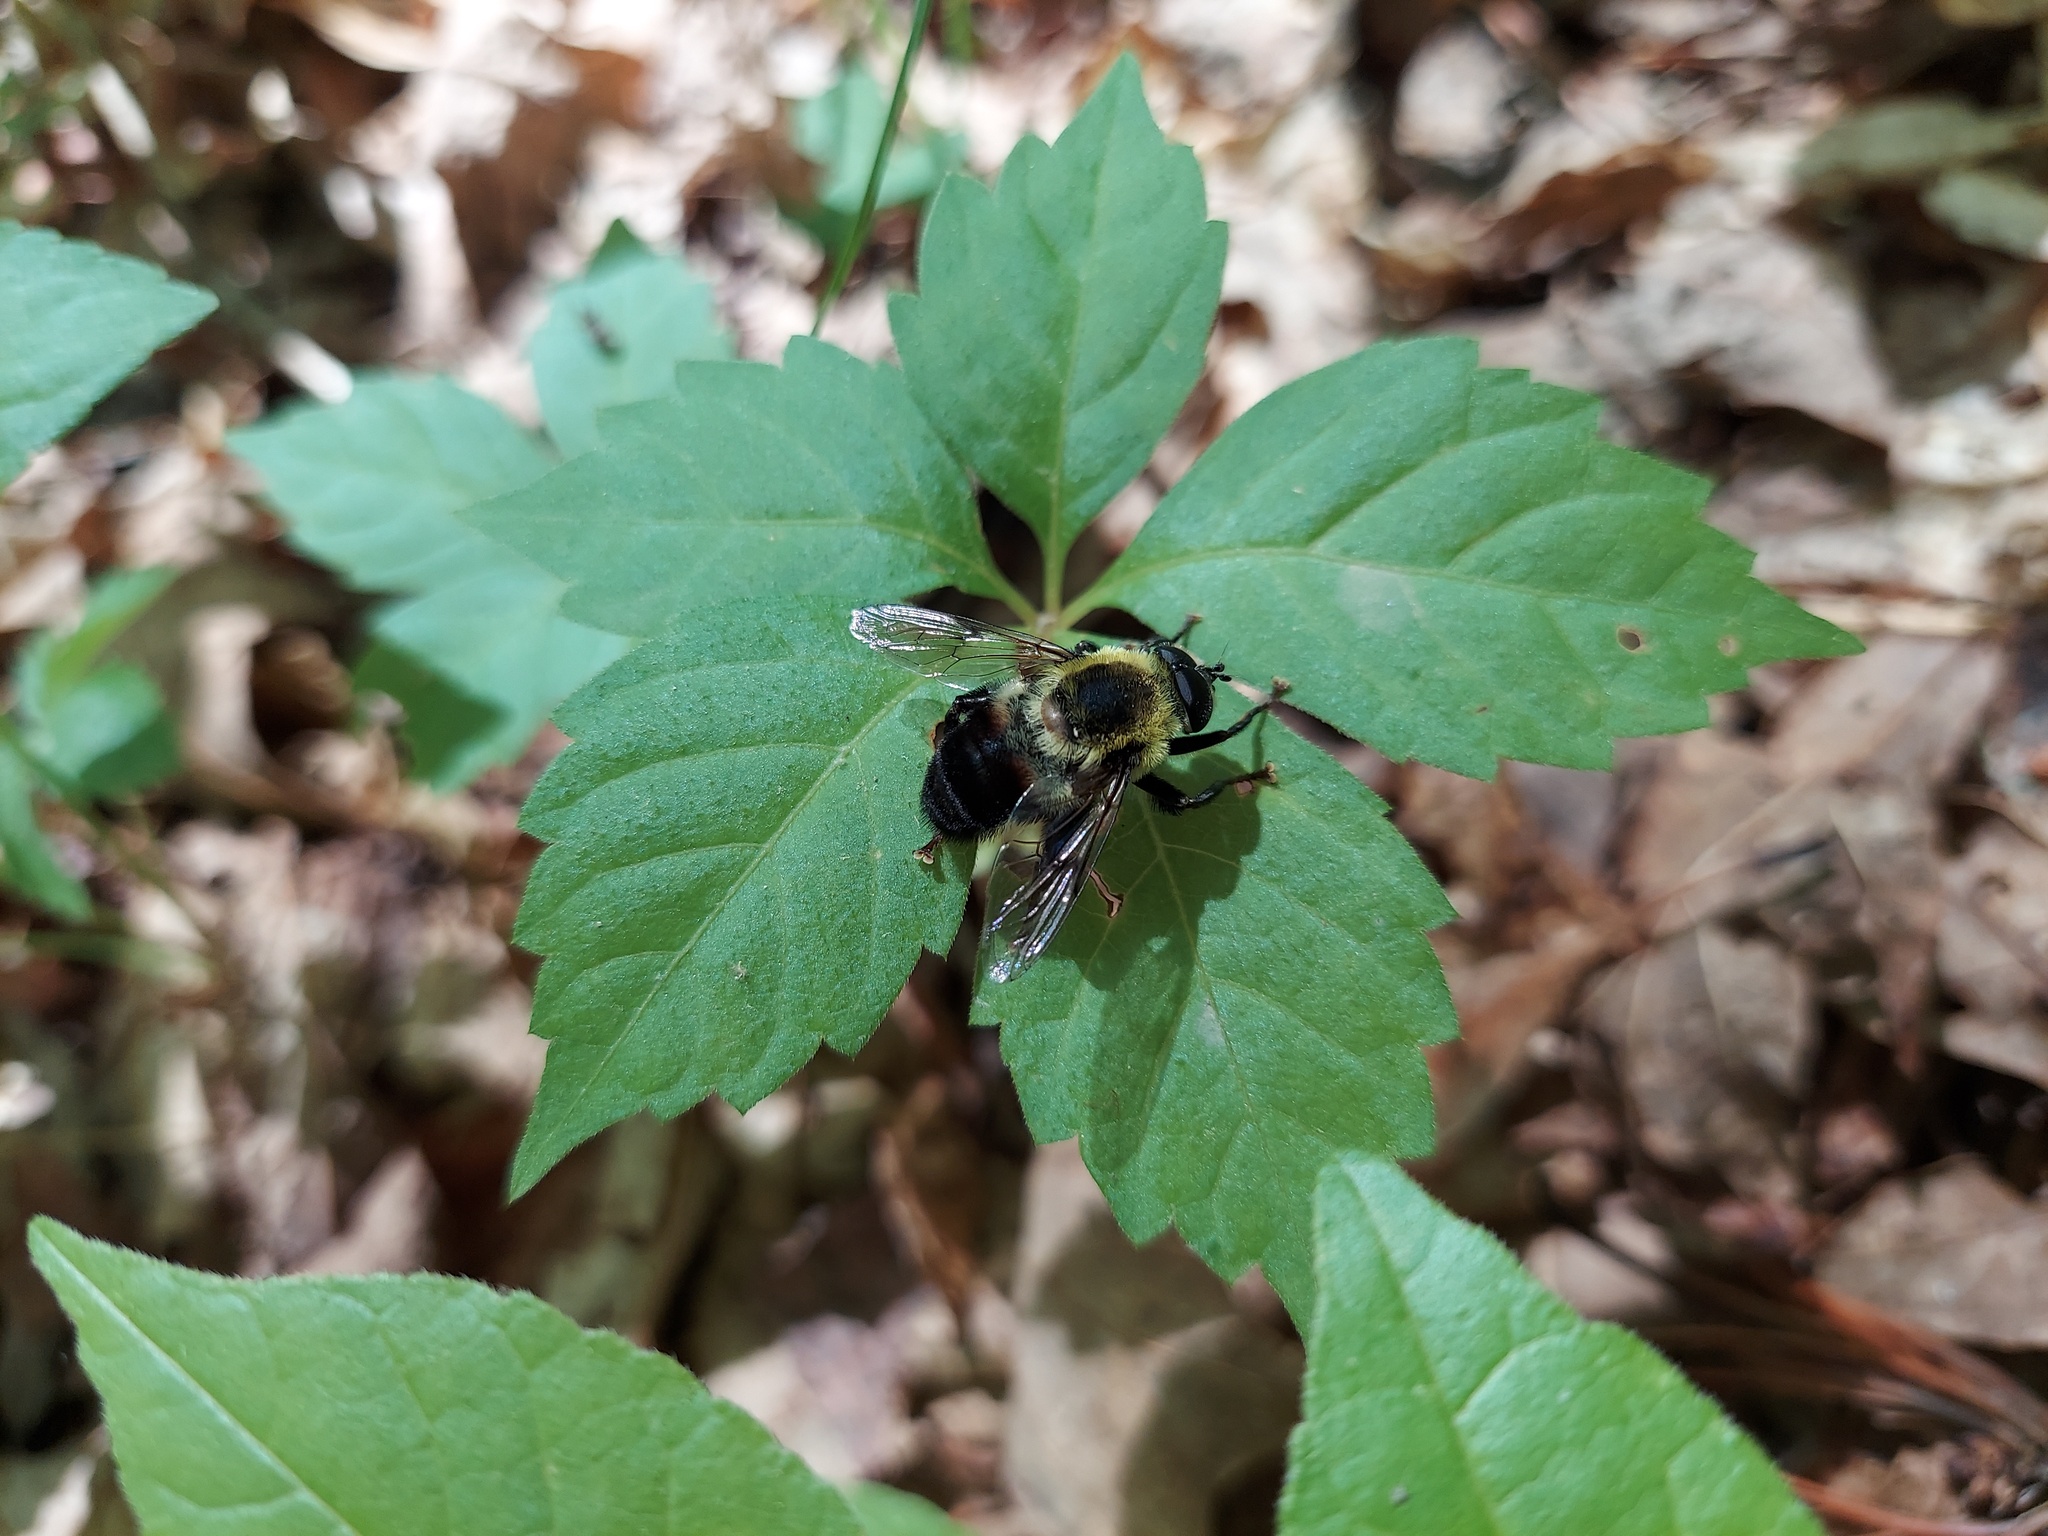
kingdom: Animalia
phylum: Arthropoda
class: Insecta
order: Diptera
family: Syrphidae
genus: Imatisma
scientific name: Imatisma posticata
